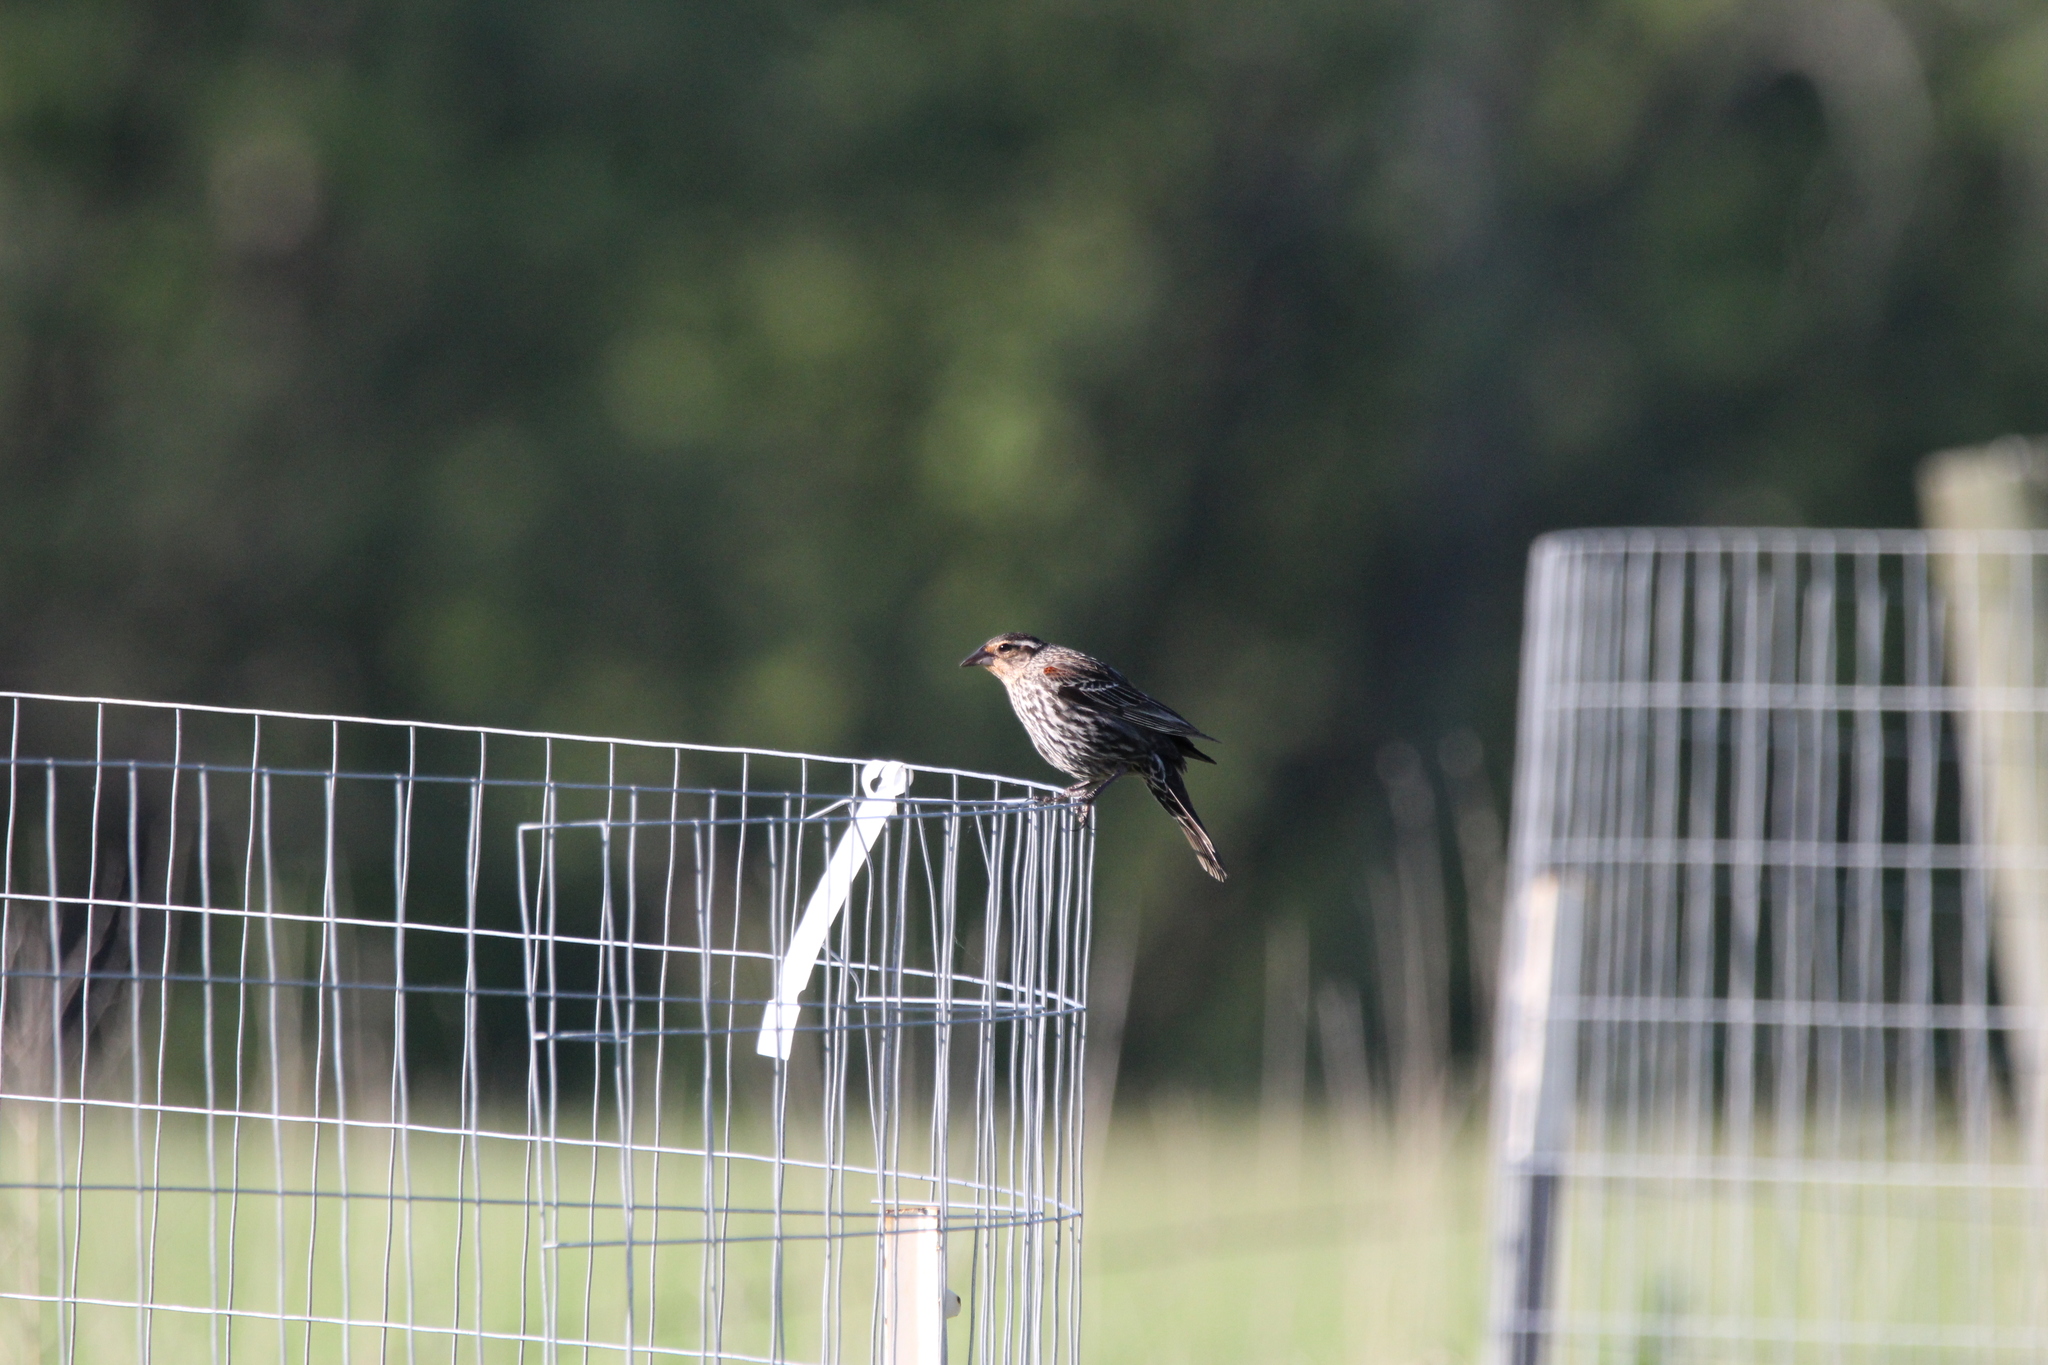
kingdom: Animalia
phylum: Chordata
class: Aves
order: Passeriformes
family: Icteridae
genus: Agelaius
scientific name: Agelaius phoeniceus
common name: Red-winged blackbird
